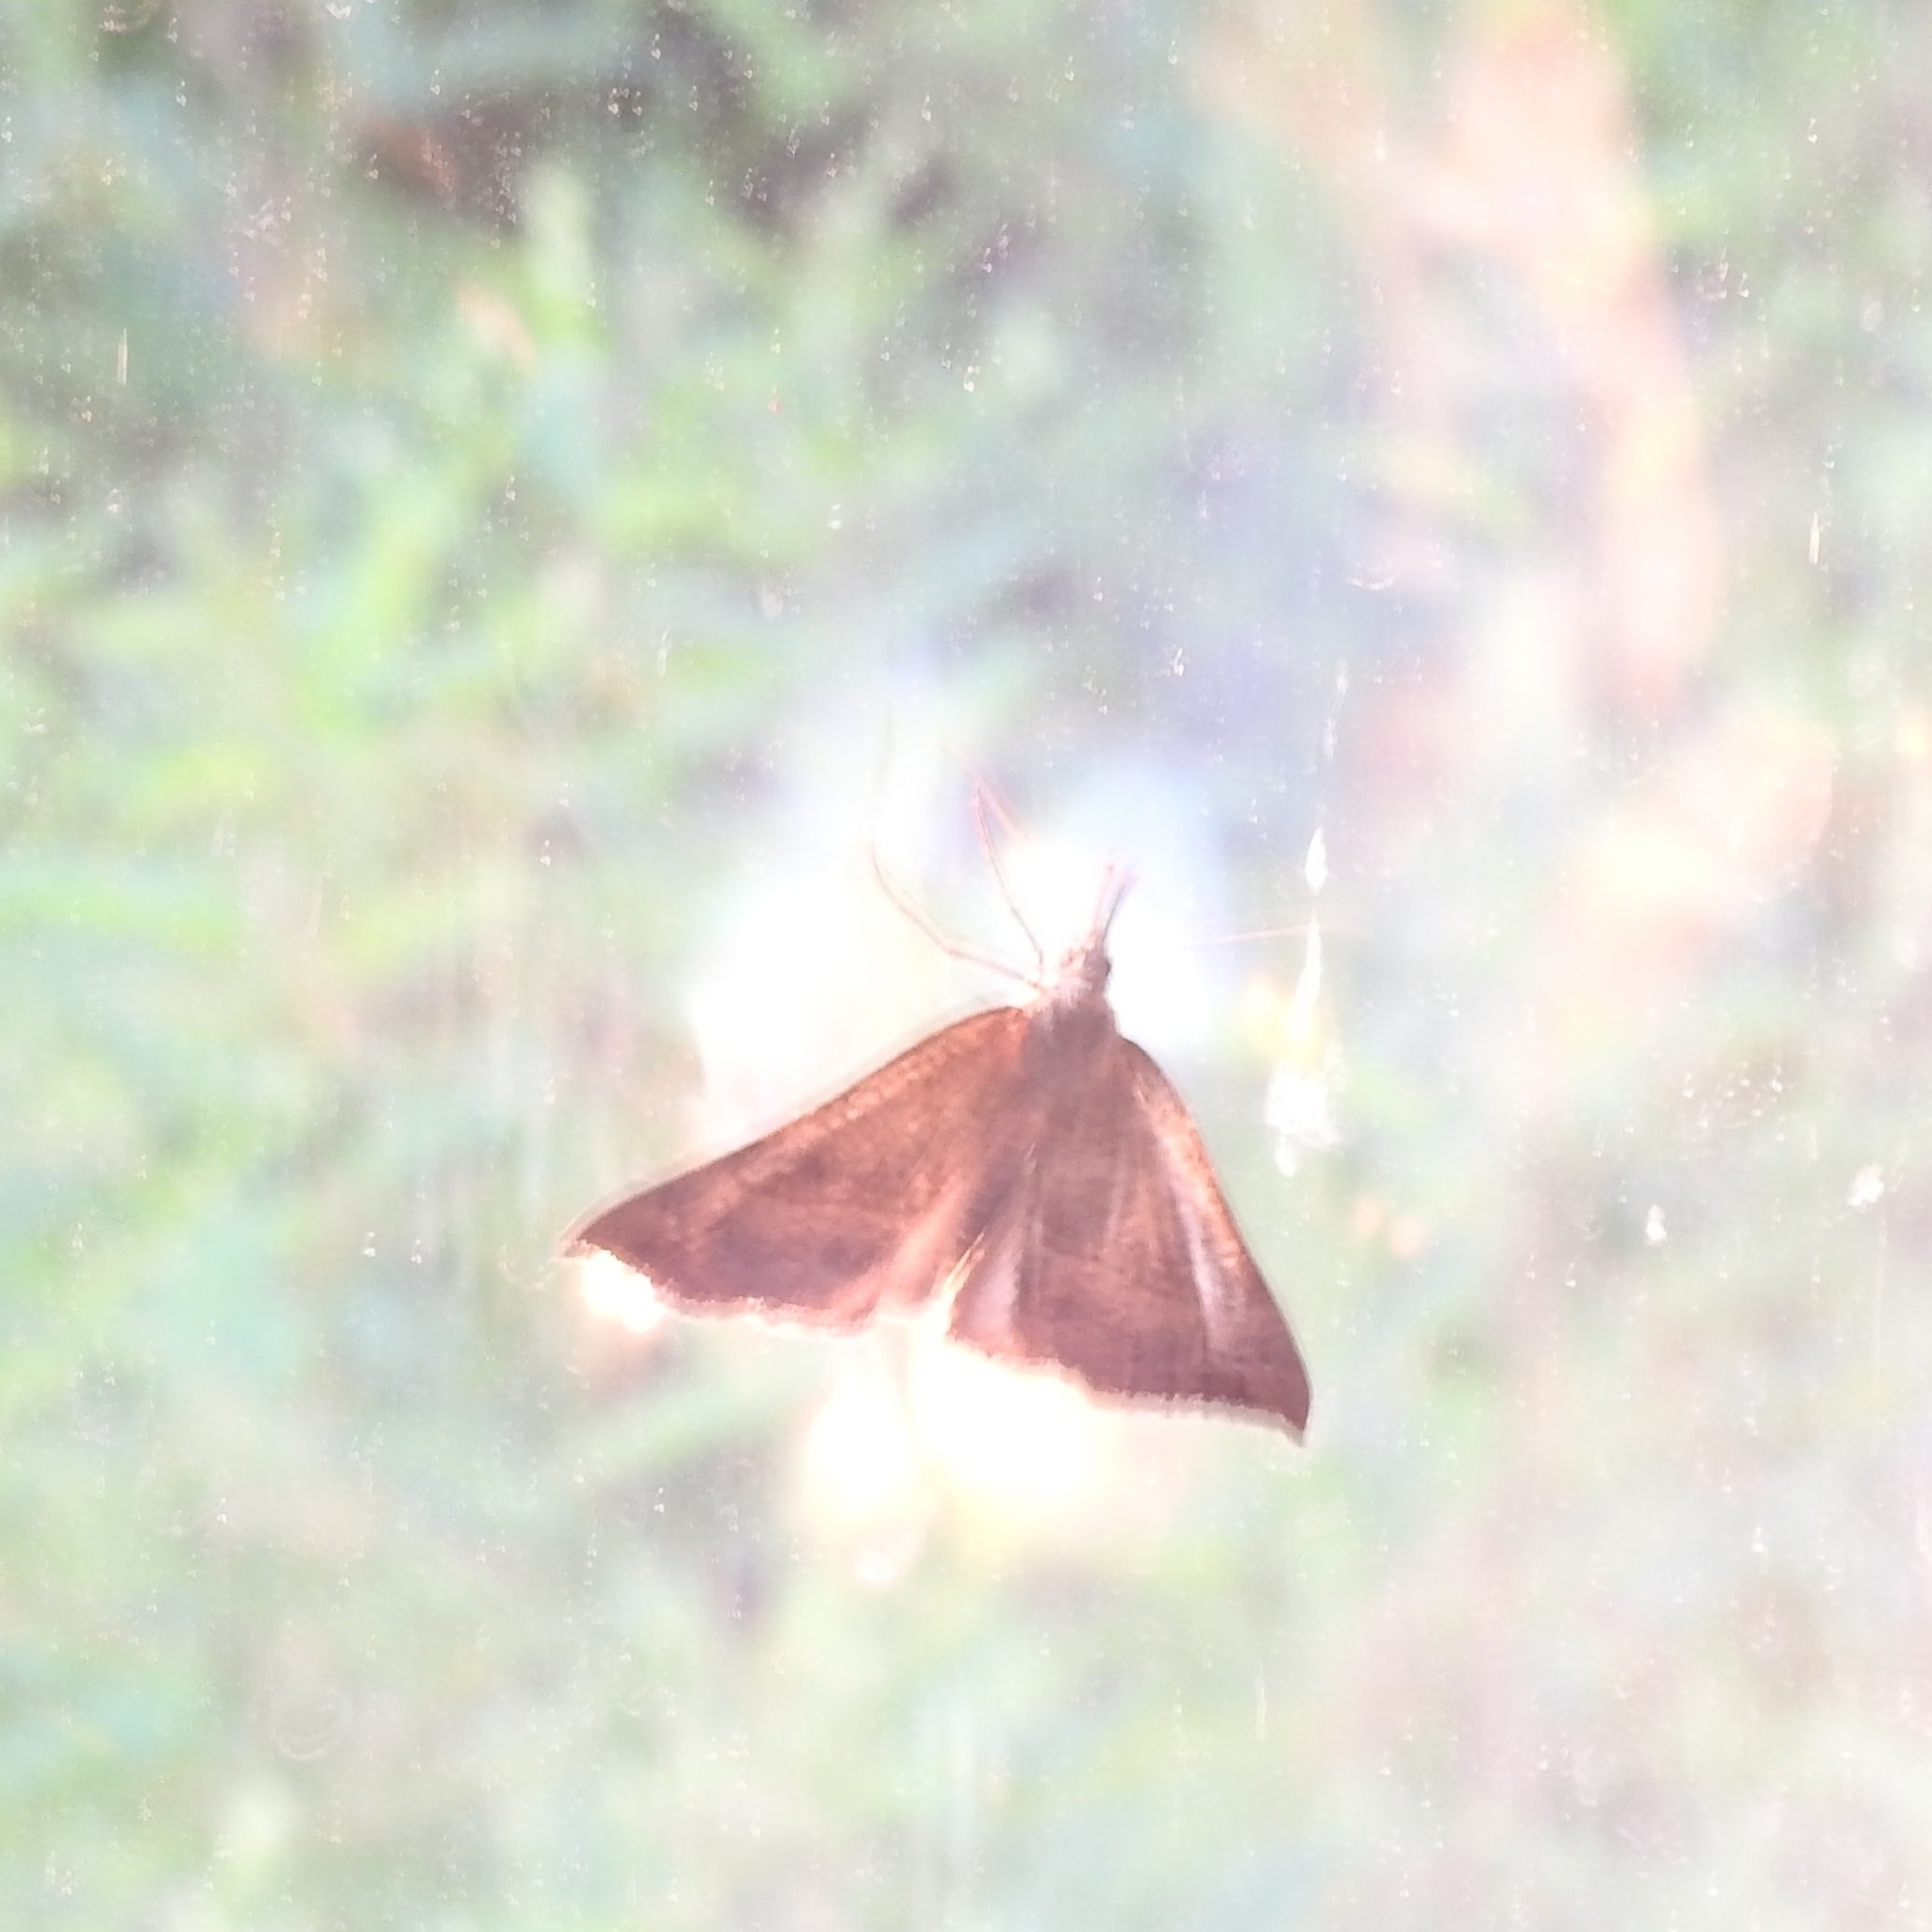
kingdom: Animalia
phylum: Arthropoda
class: Insecta
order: Lepidoptera
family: Erebidae
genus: Hypena
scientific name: Hypena proboscidalis
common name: Snout
